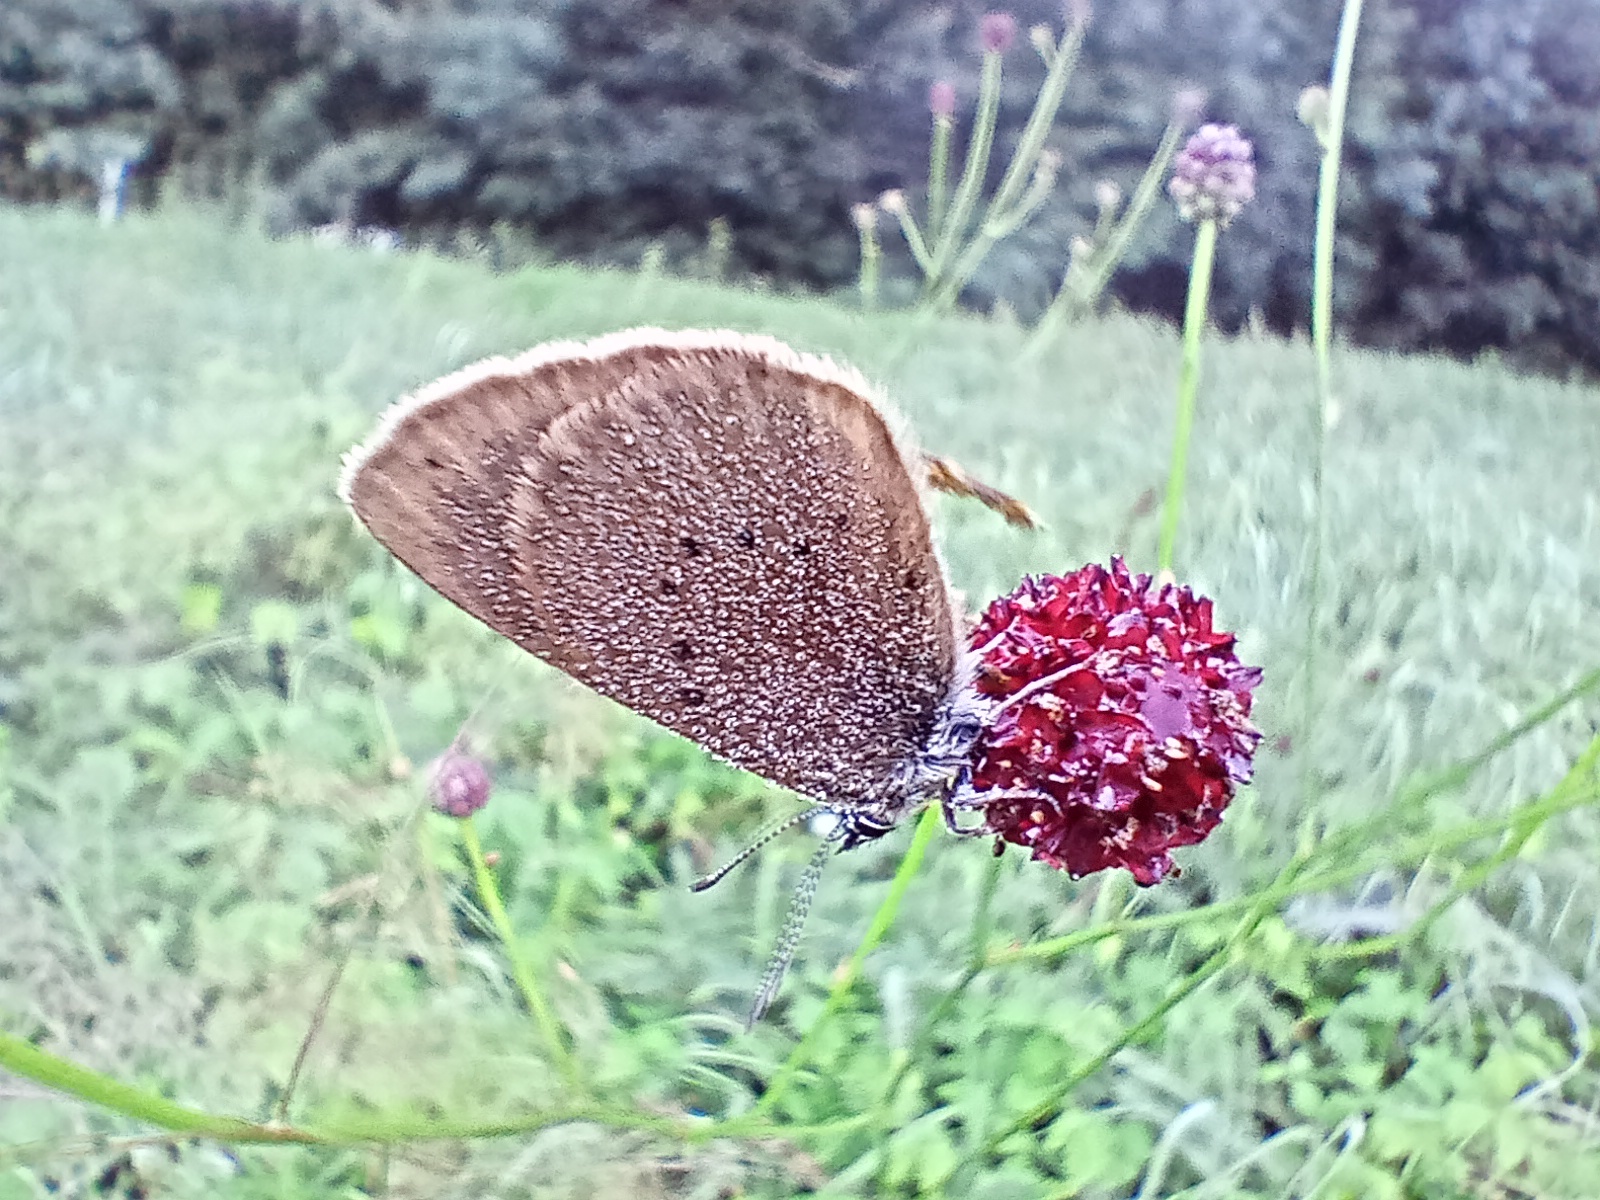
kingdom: Animalia
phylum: Arthropoda
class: Insecta
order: Lepidoptera
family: Lycaenidae
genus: Maculinea
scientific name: Maculinea nausithous
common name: Dusky large blue
